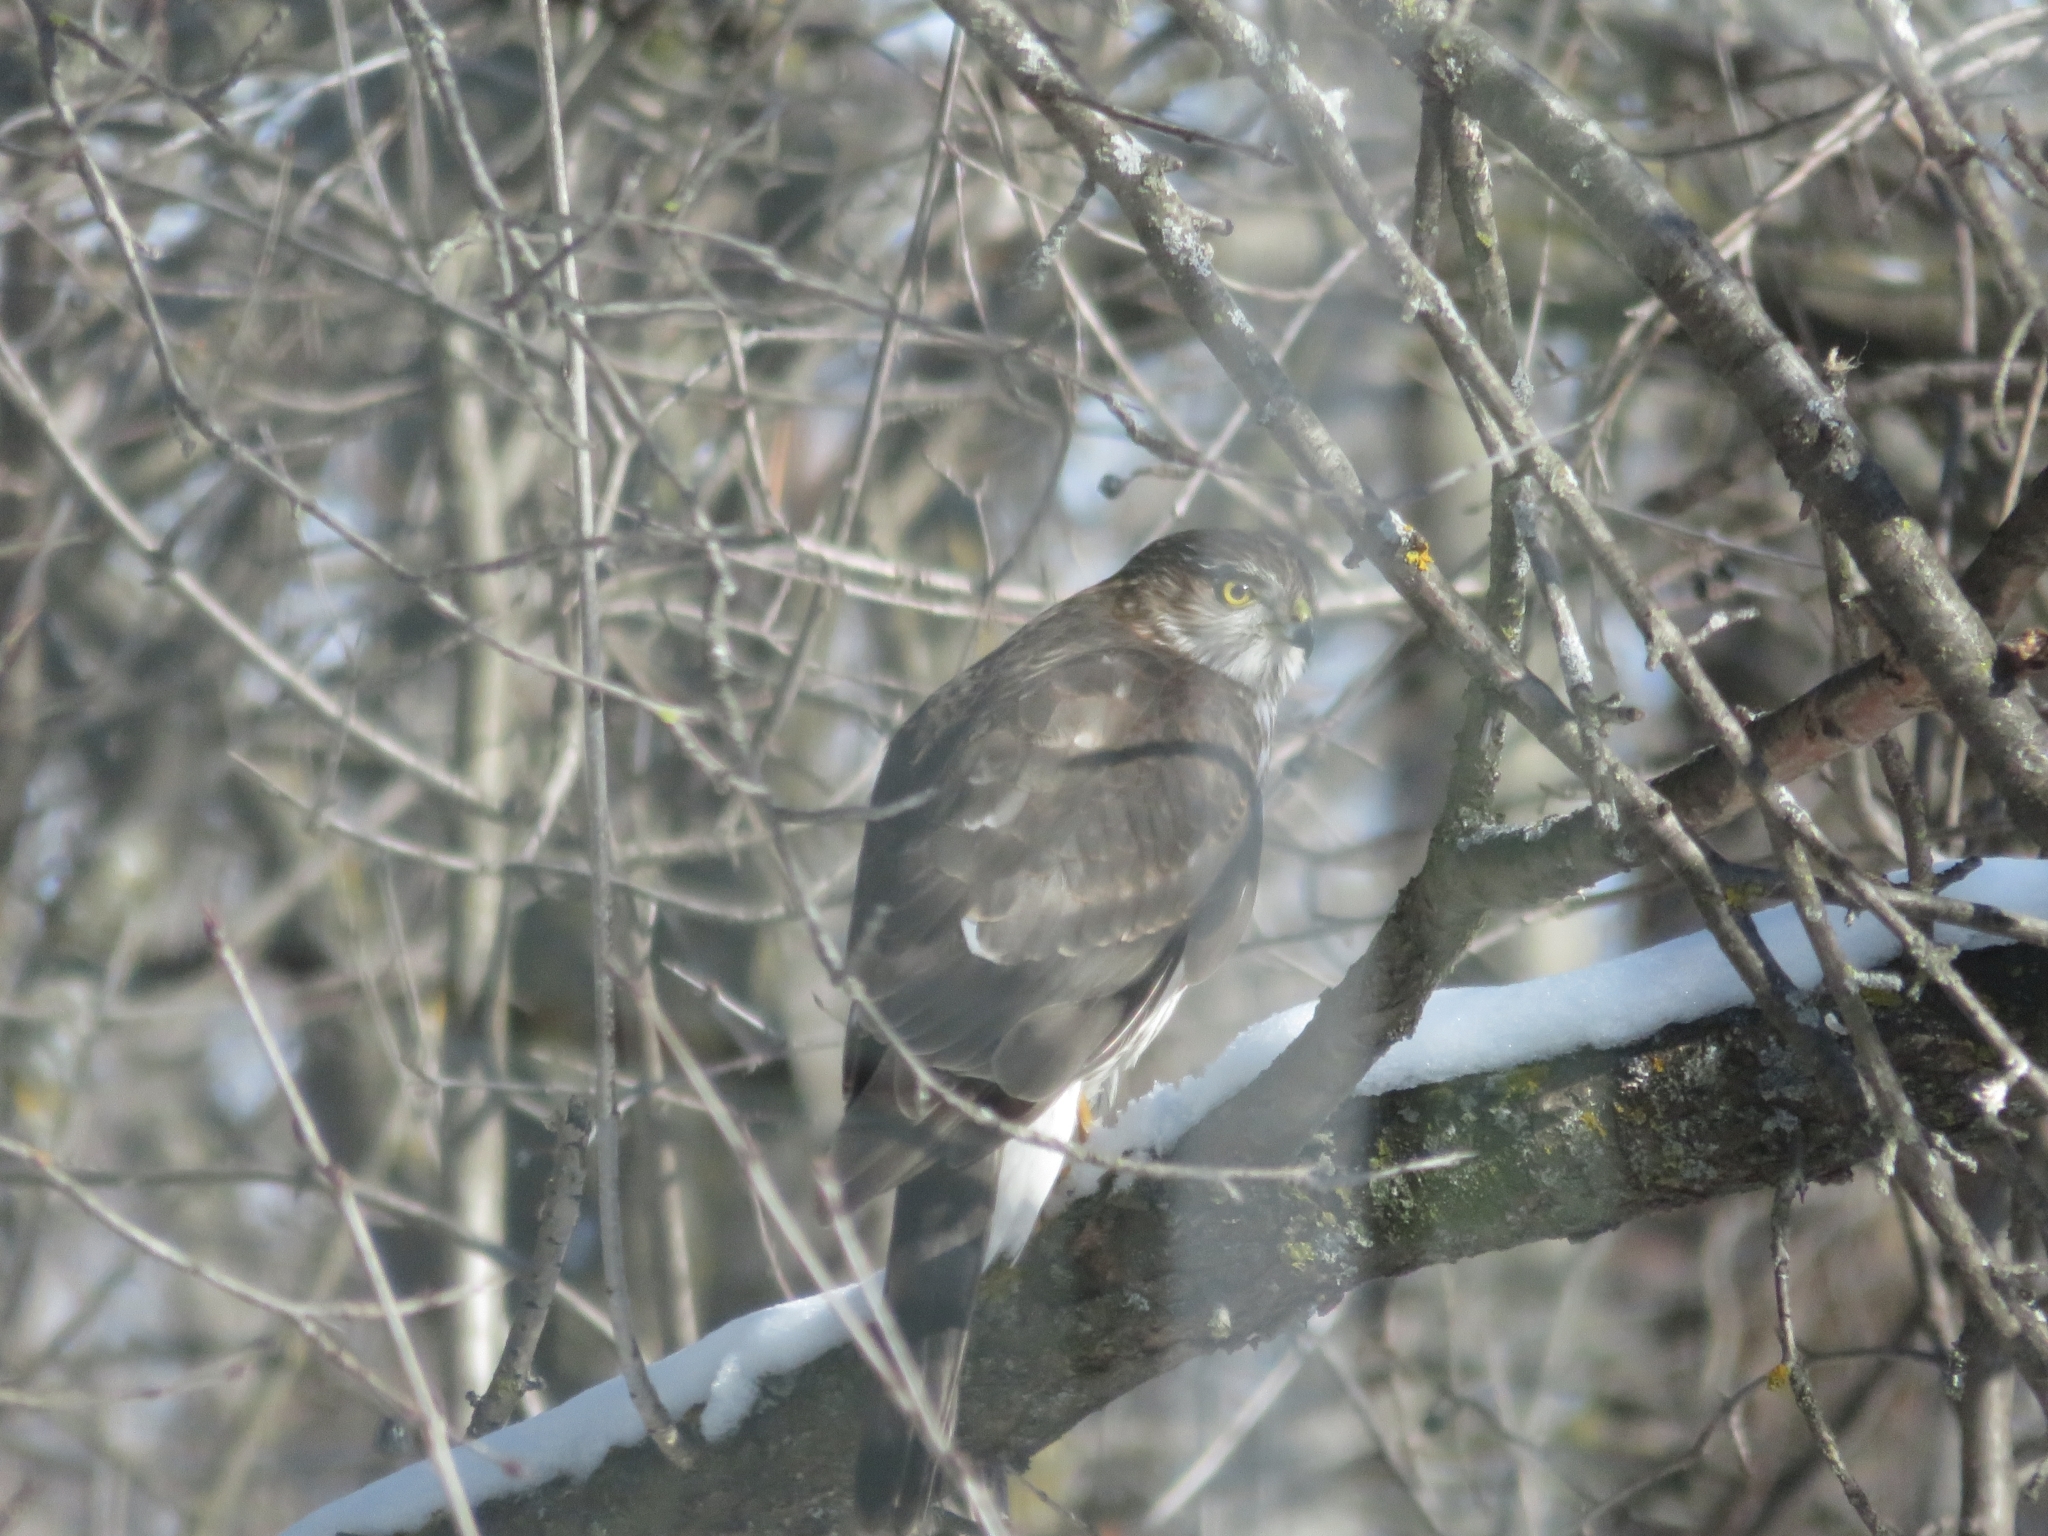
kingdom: Animalia
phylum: Chordata
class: Aves
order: Accipitriformes
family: Accipitridae
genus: Accipiter
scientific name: Accipiter striatus
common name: Sharp-shinned hawk
